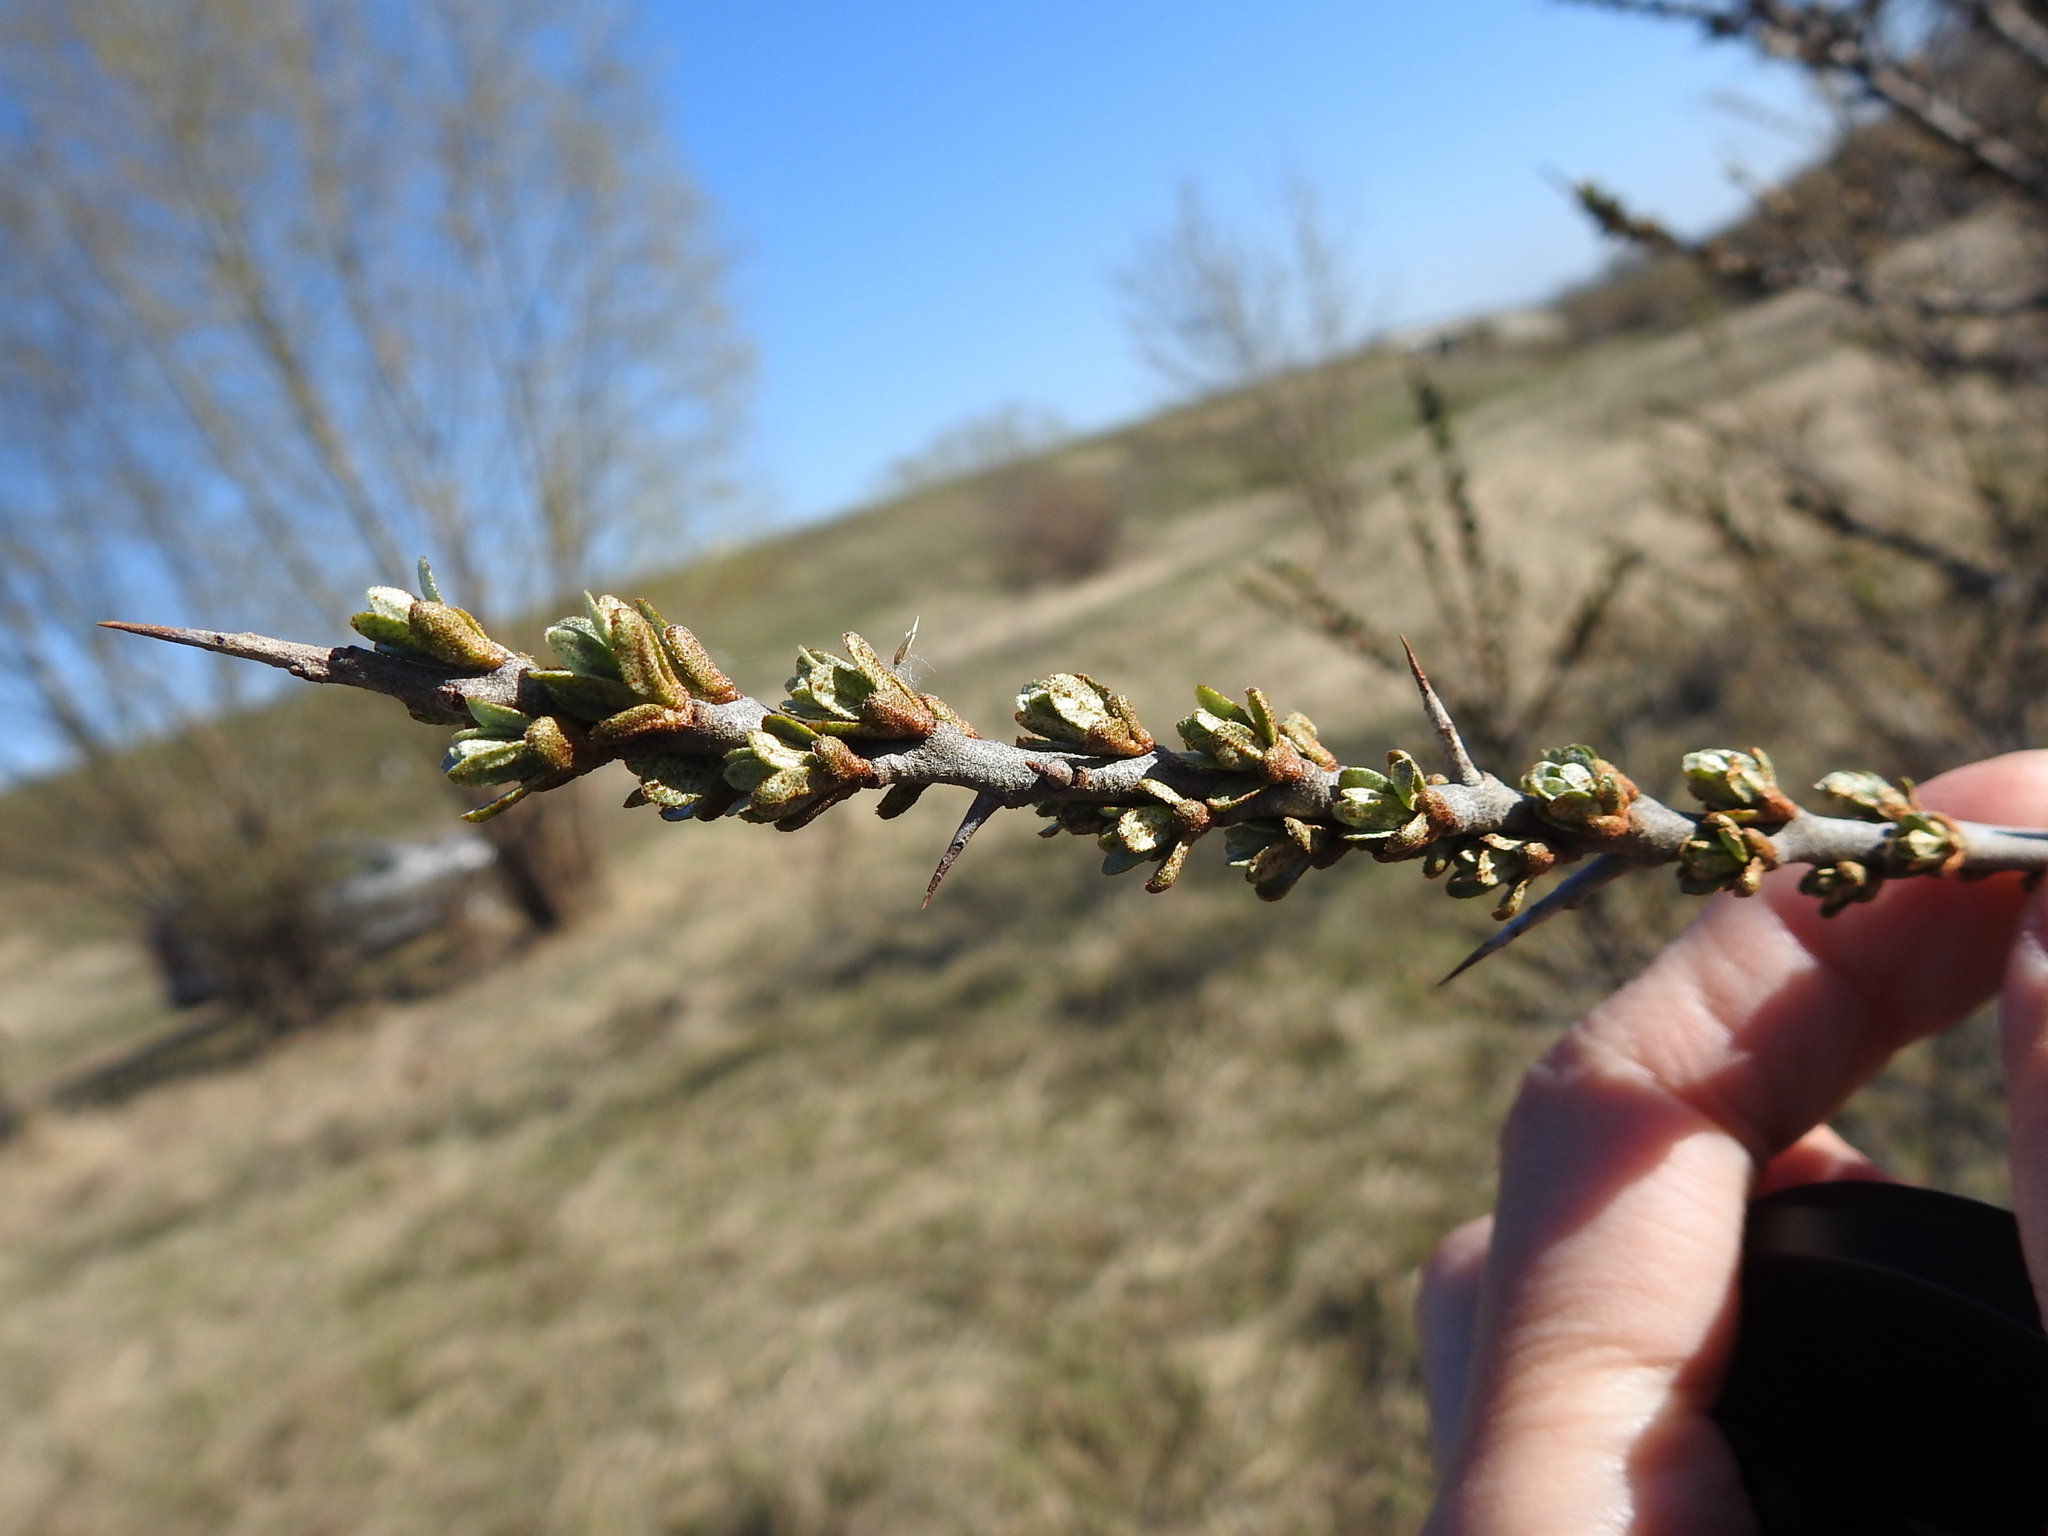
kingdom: Plantae
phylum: Tracheophyta
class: Magnoliopsida
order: Rosales
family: Elaeagnaceae
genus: Hippophae
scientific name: Hippophae rhamnoides
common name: Sea-buckthorn
